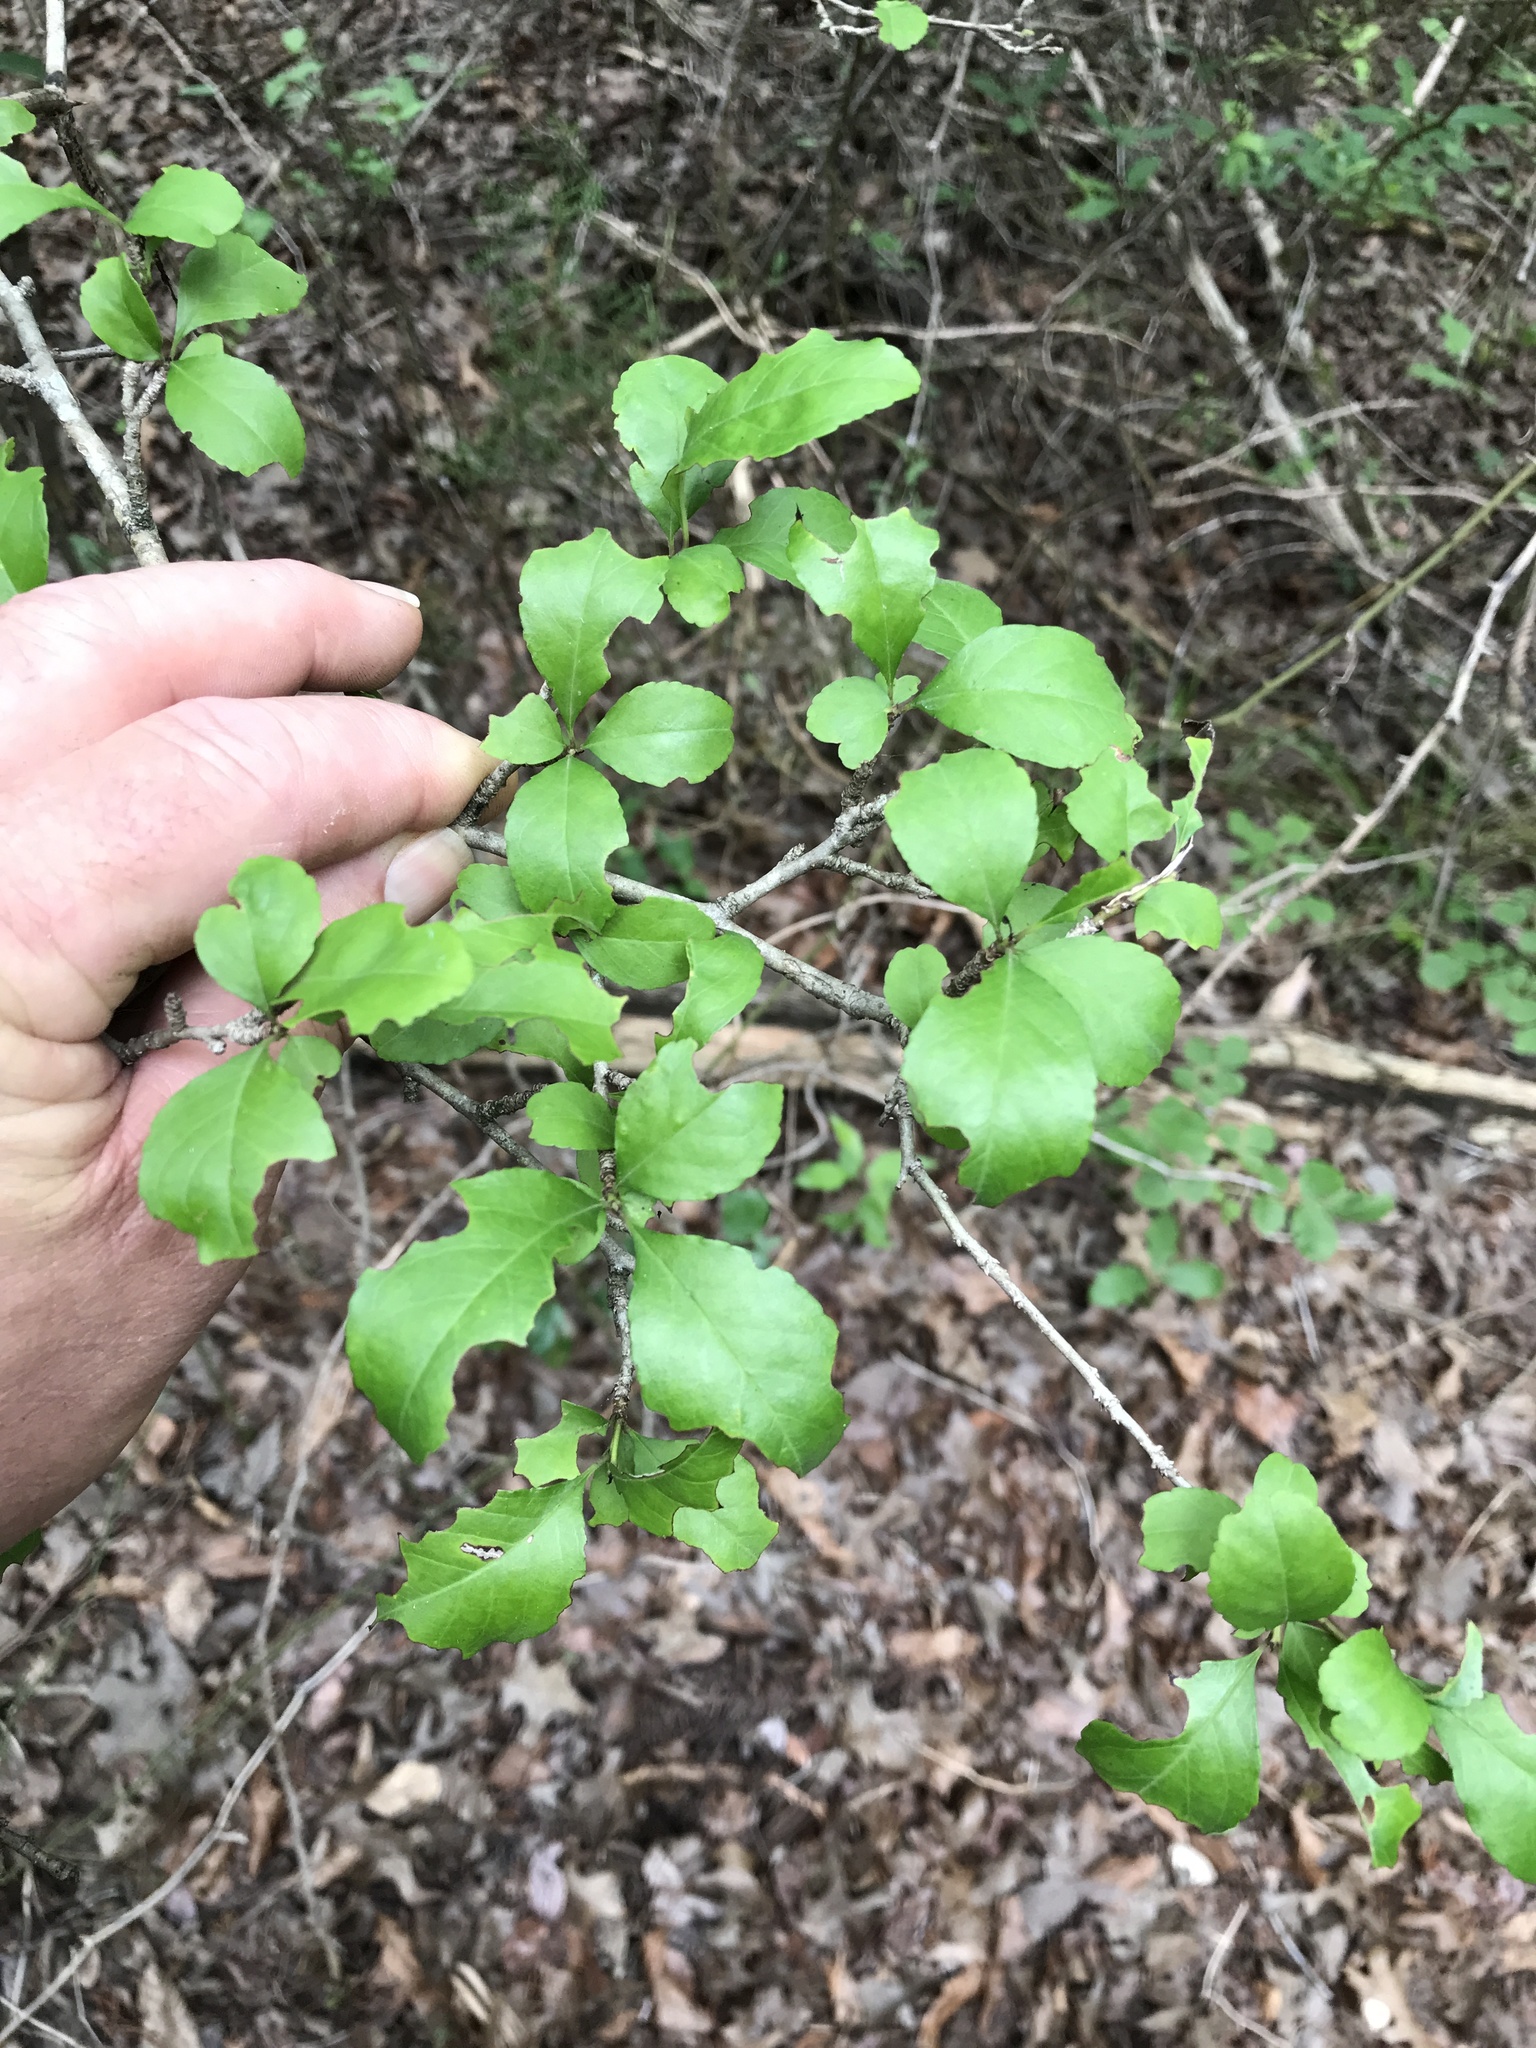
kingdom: Plantae
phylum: Tracheophyta
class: Magnoliopsida
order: Aquifoliales
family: Aquifoliaceae
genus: Ilex
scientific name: Ilex decidua
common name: Possum-haw
